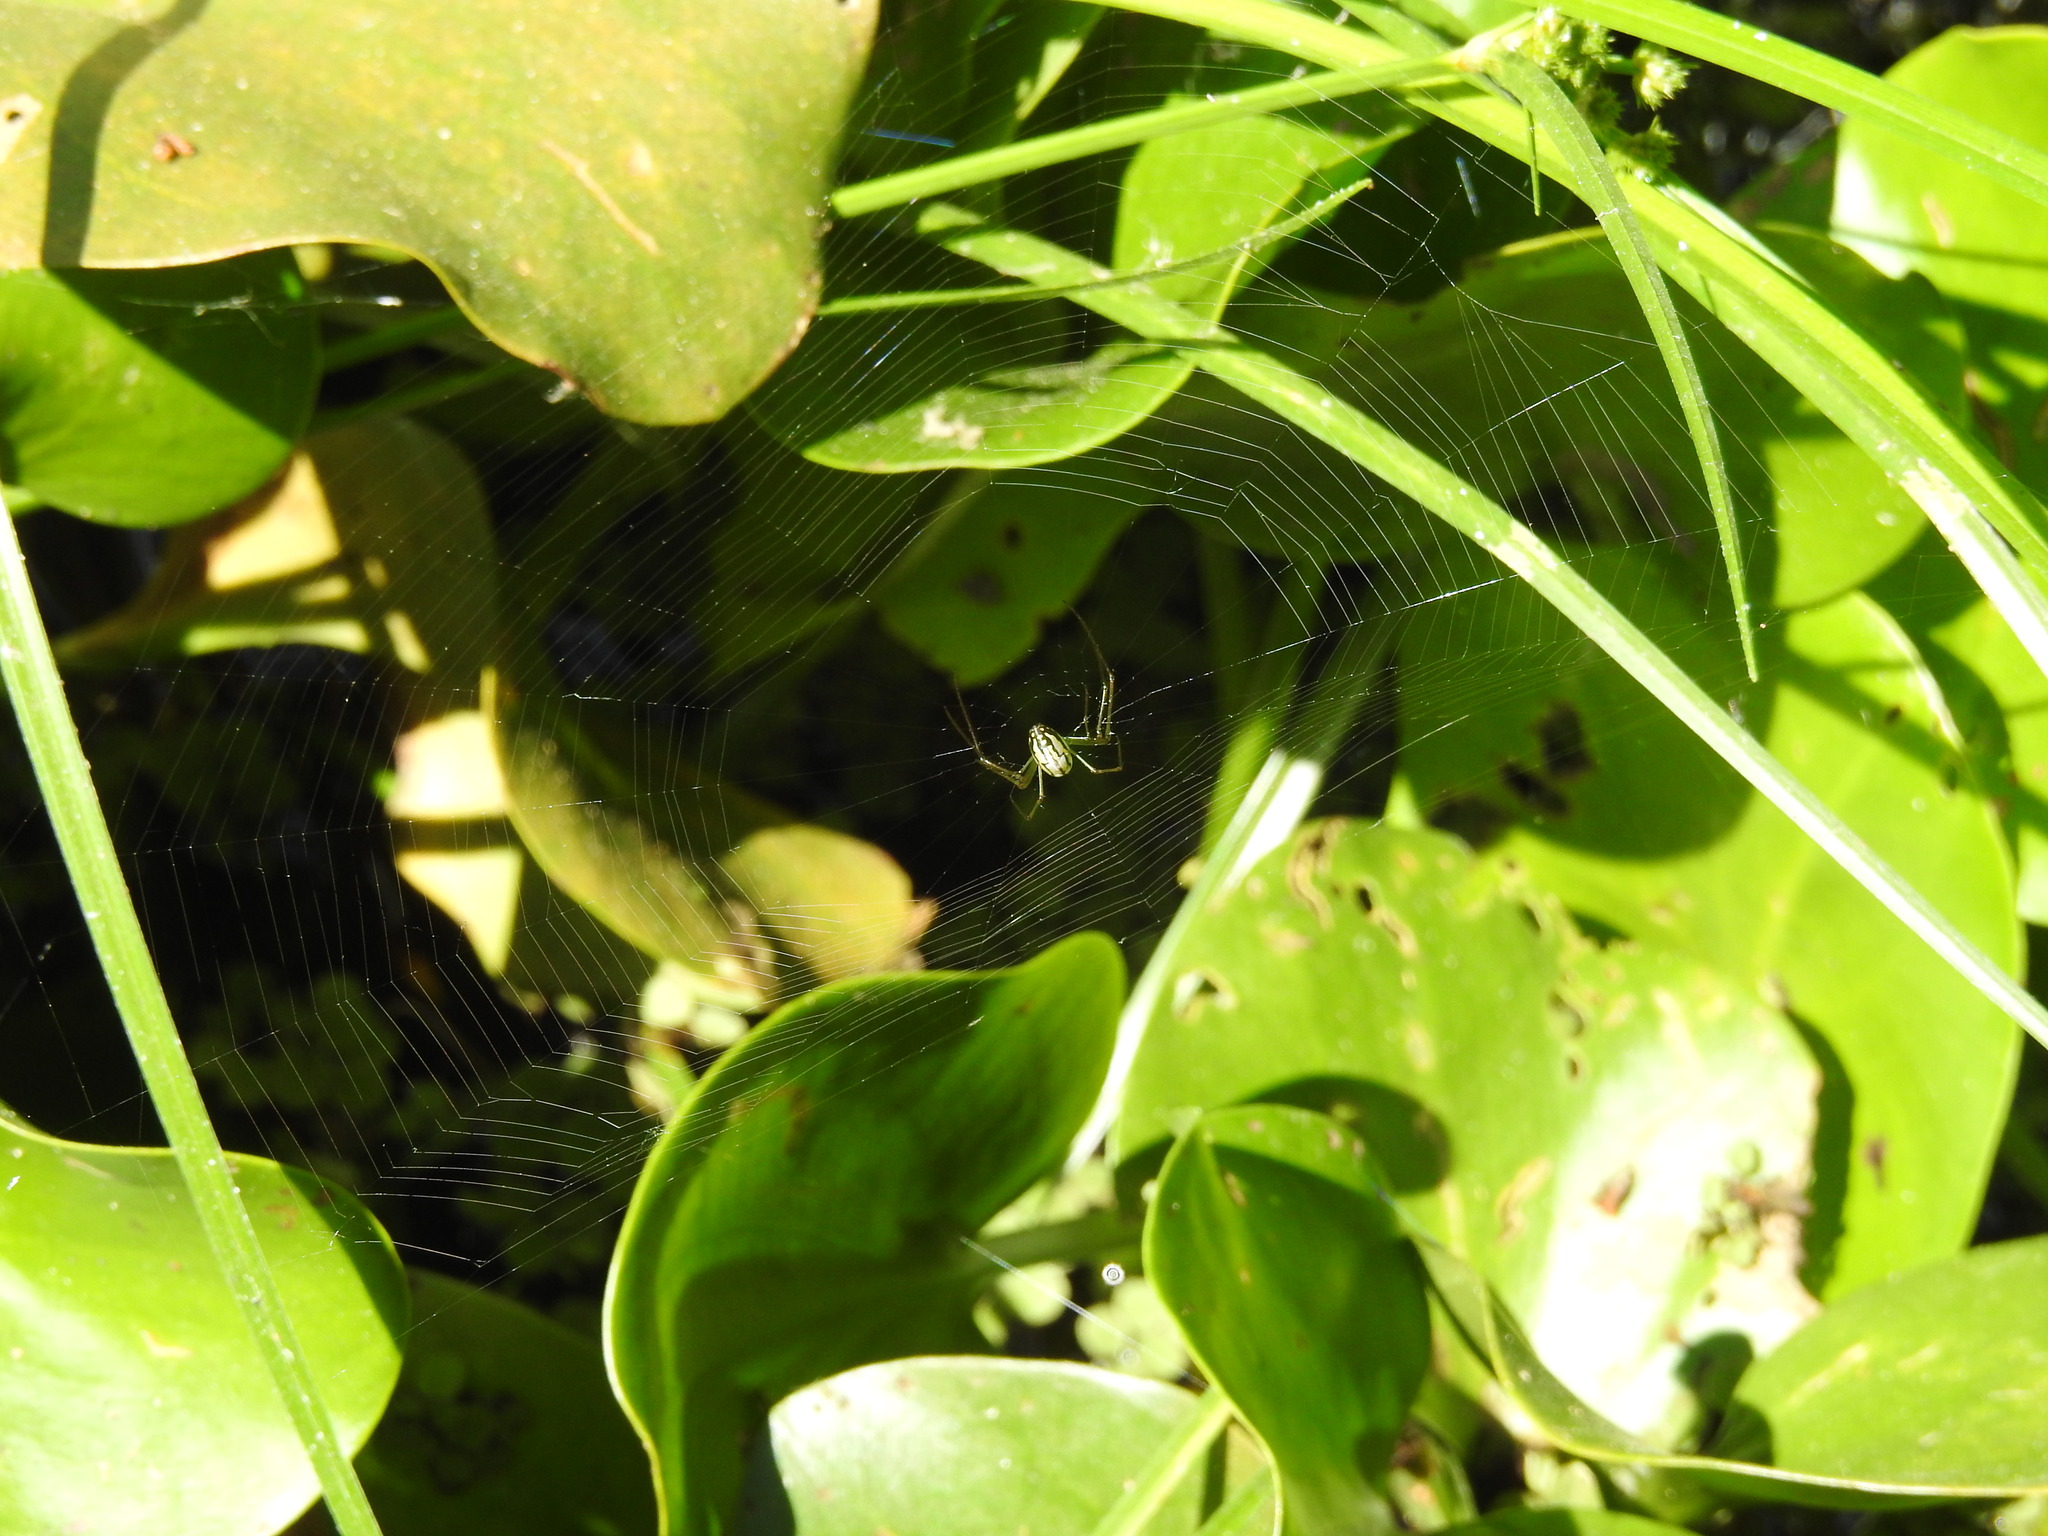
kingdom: Animalia
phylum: Arthropoda
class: Arachnida
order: Araneae
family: Tetragnathidae
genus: Leucauge
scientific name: Leucauge argyra
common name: Longjawed orb weavers
